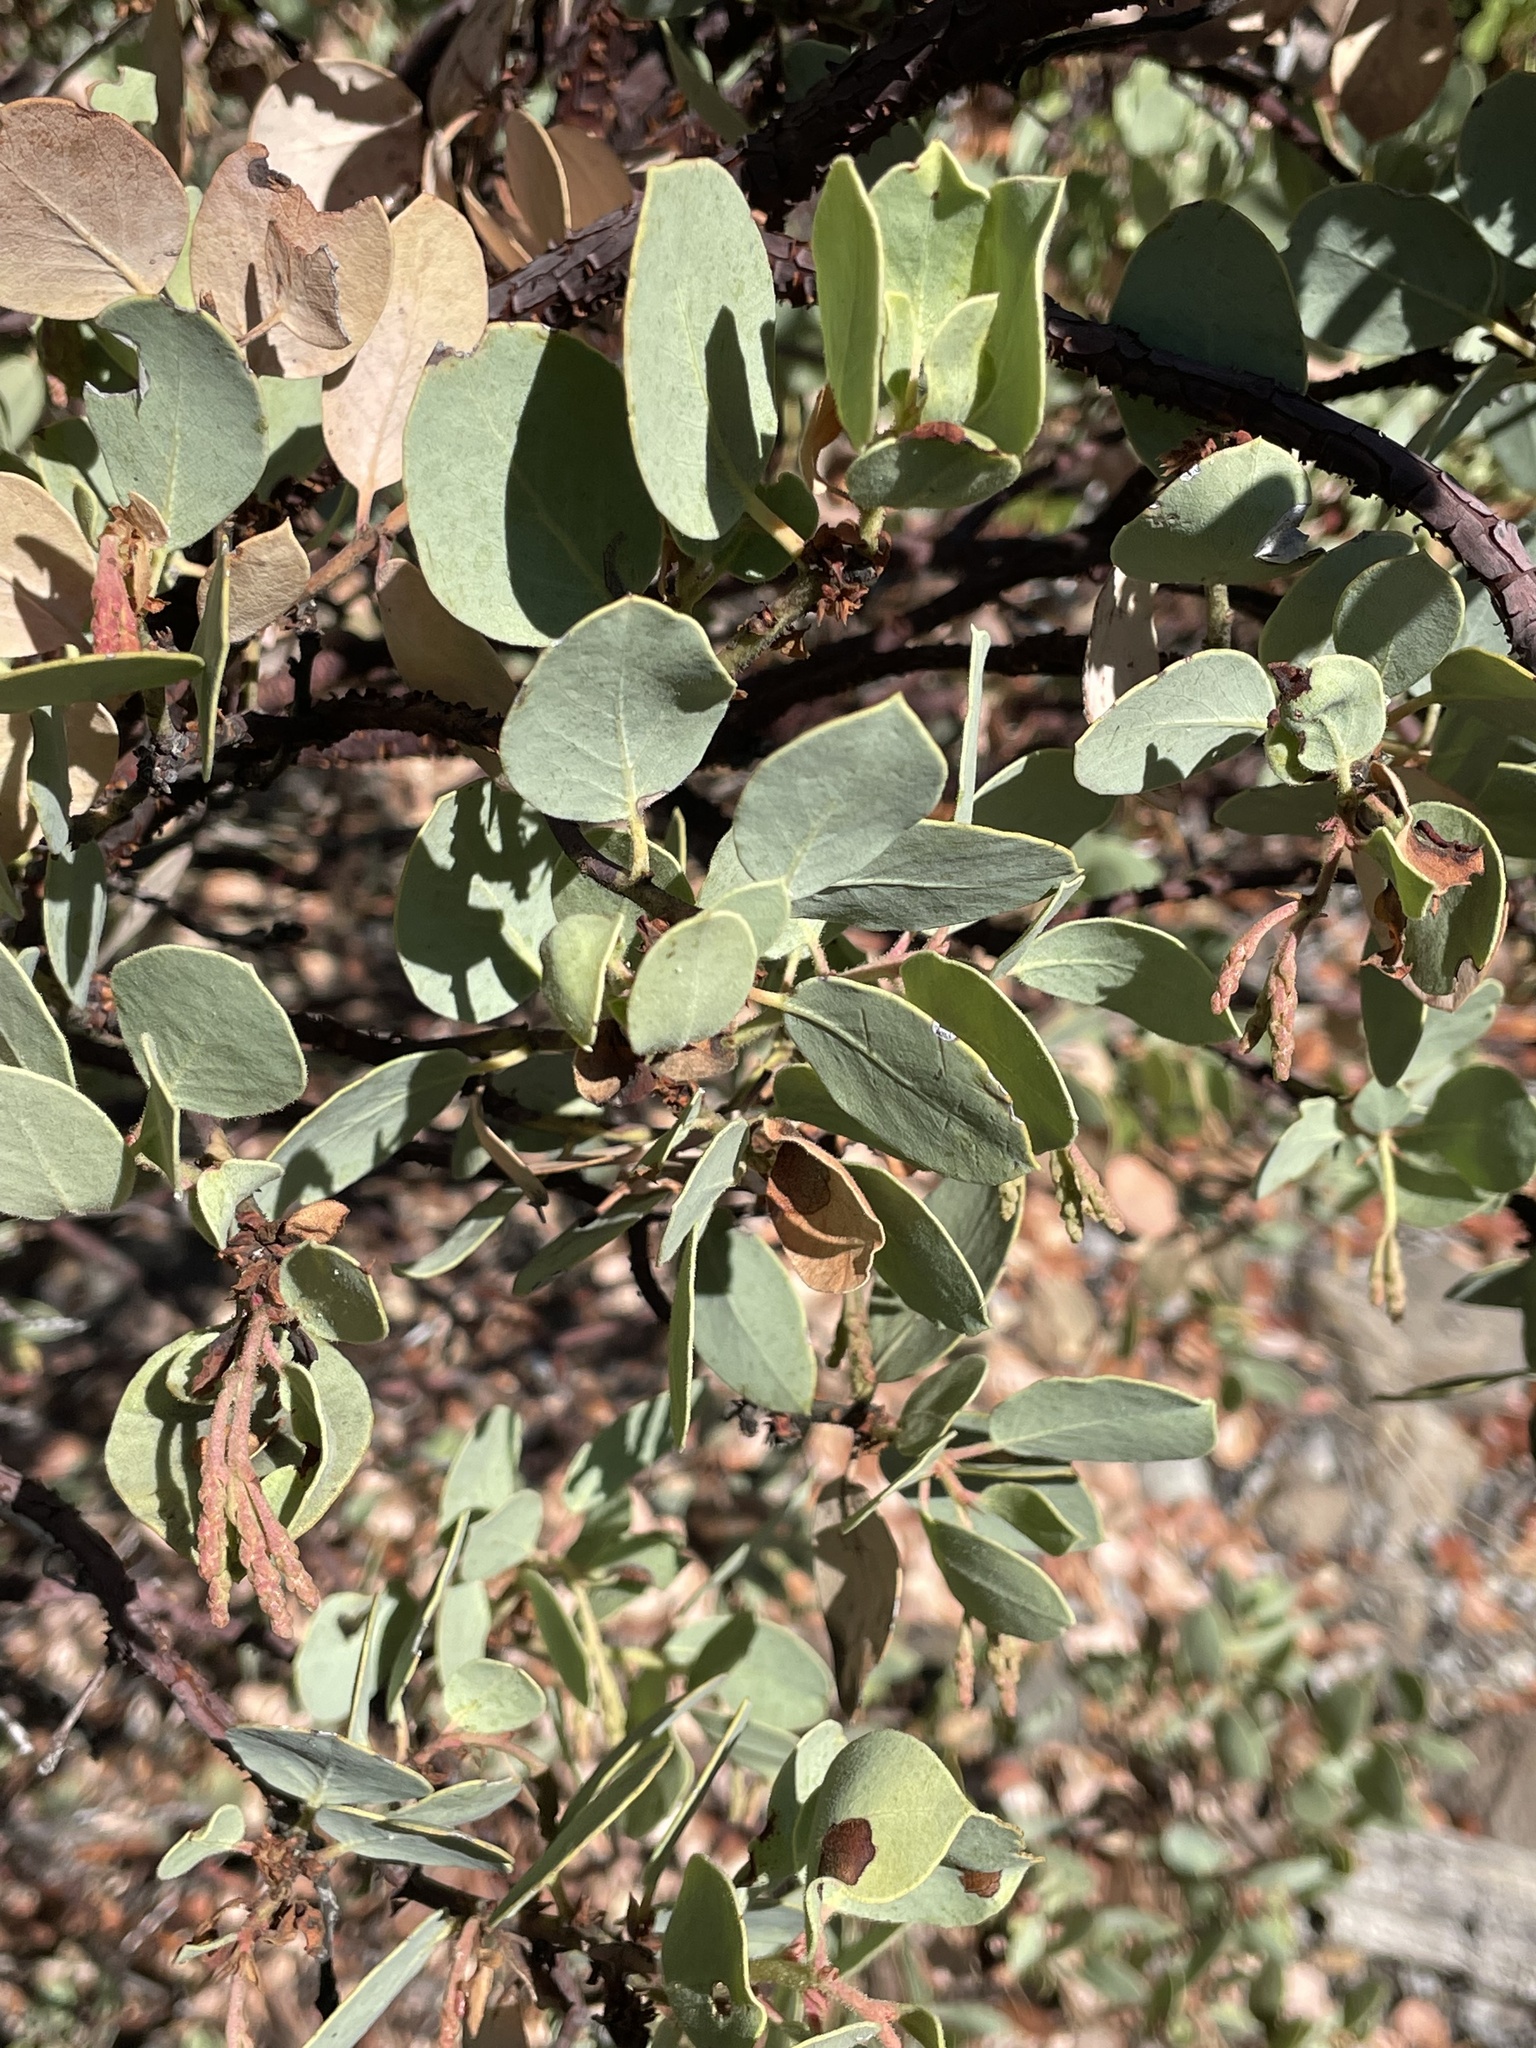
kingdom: Plantae
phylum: Tracheophyta
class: Magnoliopsida
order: Ericales
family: Ericaceae
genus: Arctostaphylos
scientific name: Arctostaphylos viscida
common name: White-leaf manzanita
